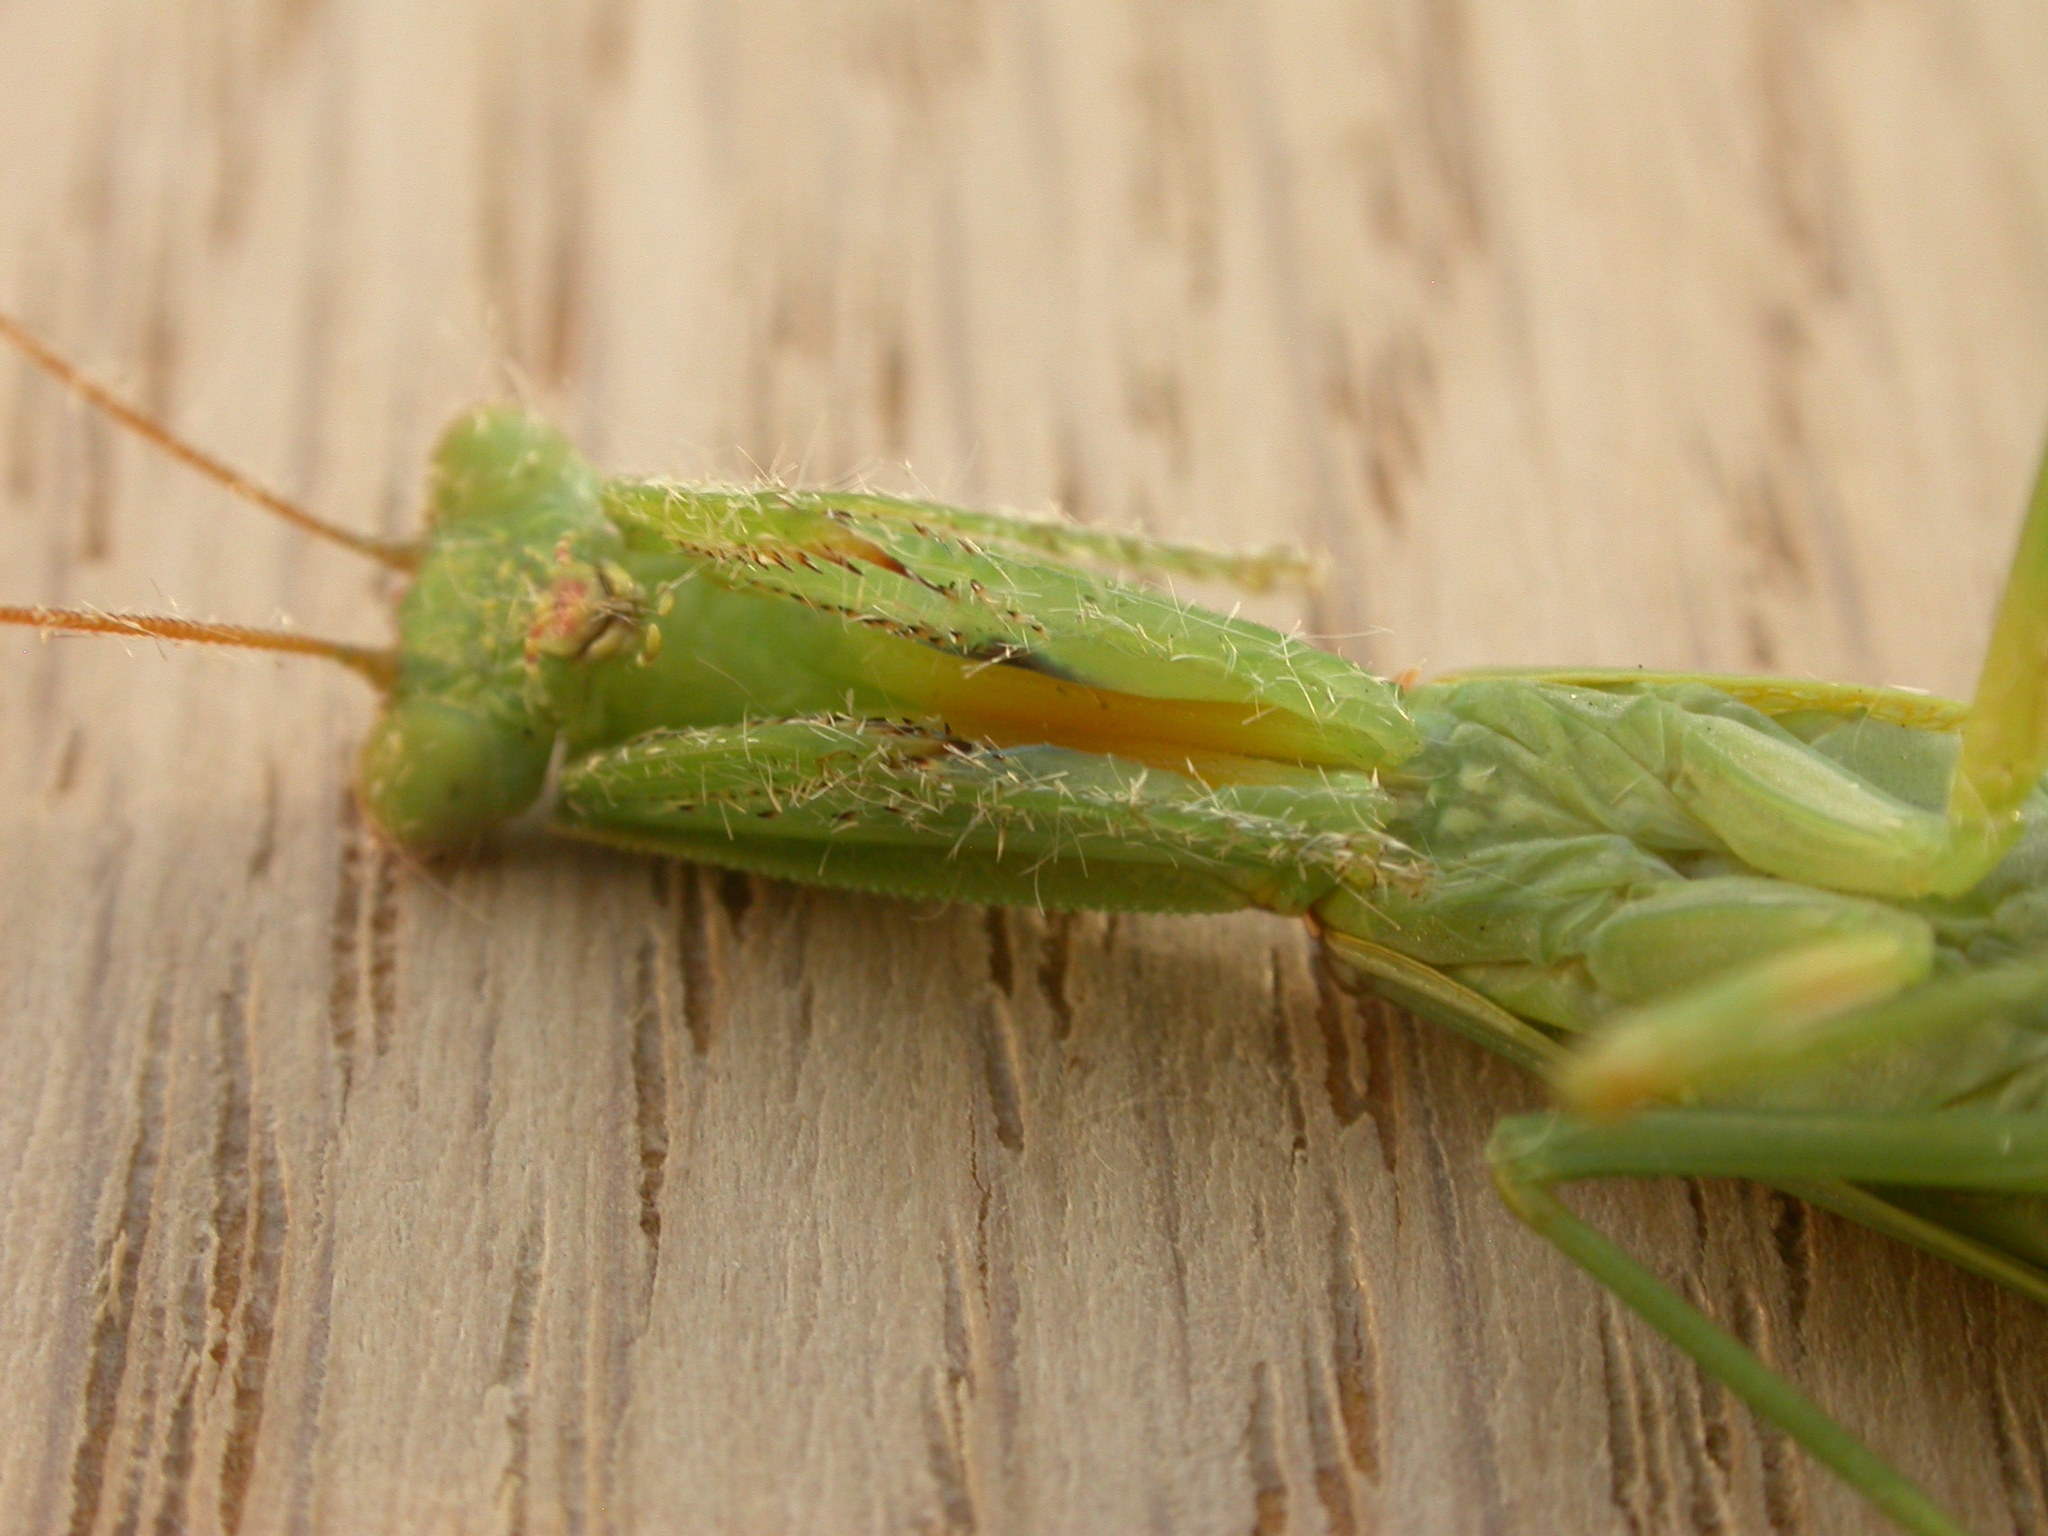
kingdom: Animalia
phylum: Arthropoda
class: Insecta
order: Mantodea
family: Mantidae
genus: Orthodera
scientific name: Orthodera ministralis
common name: Mantis
